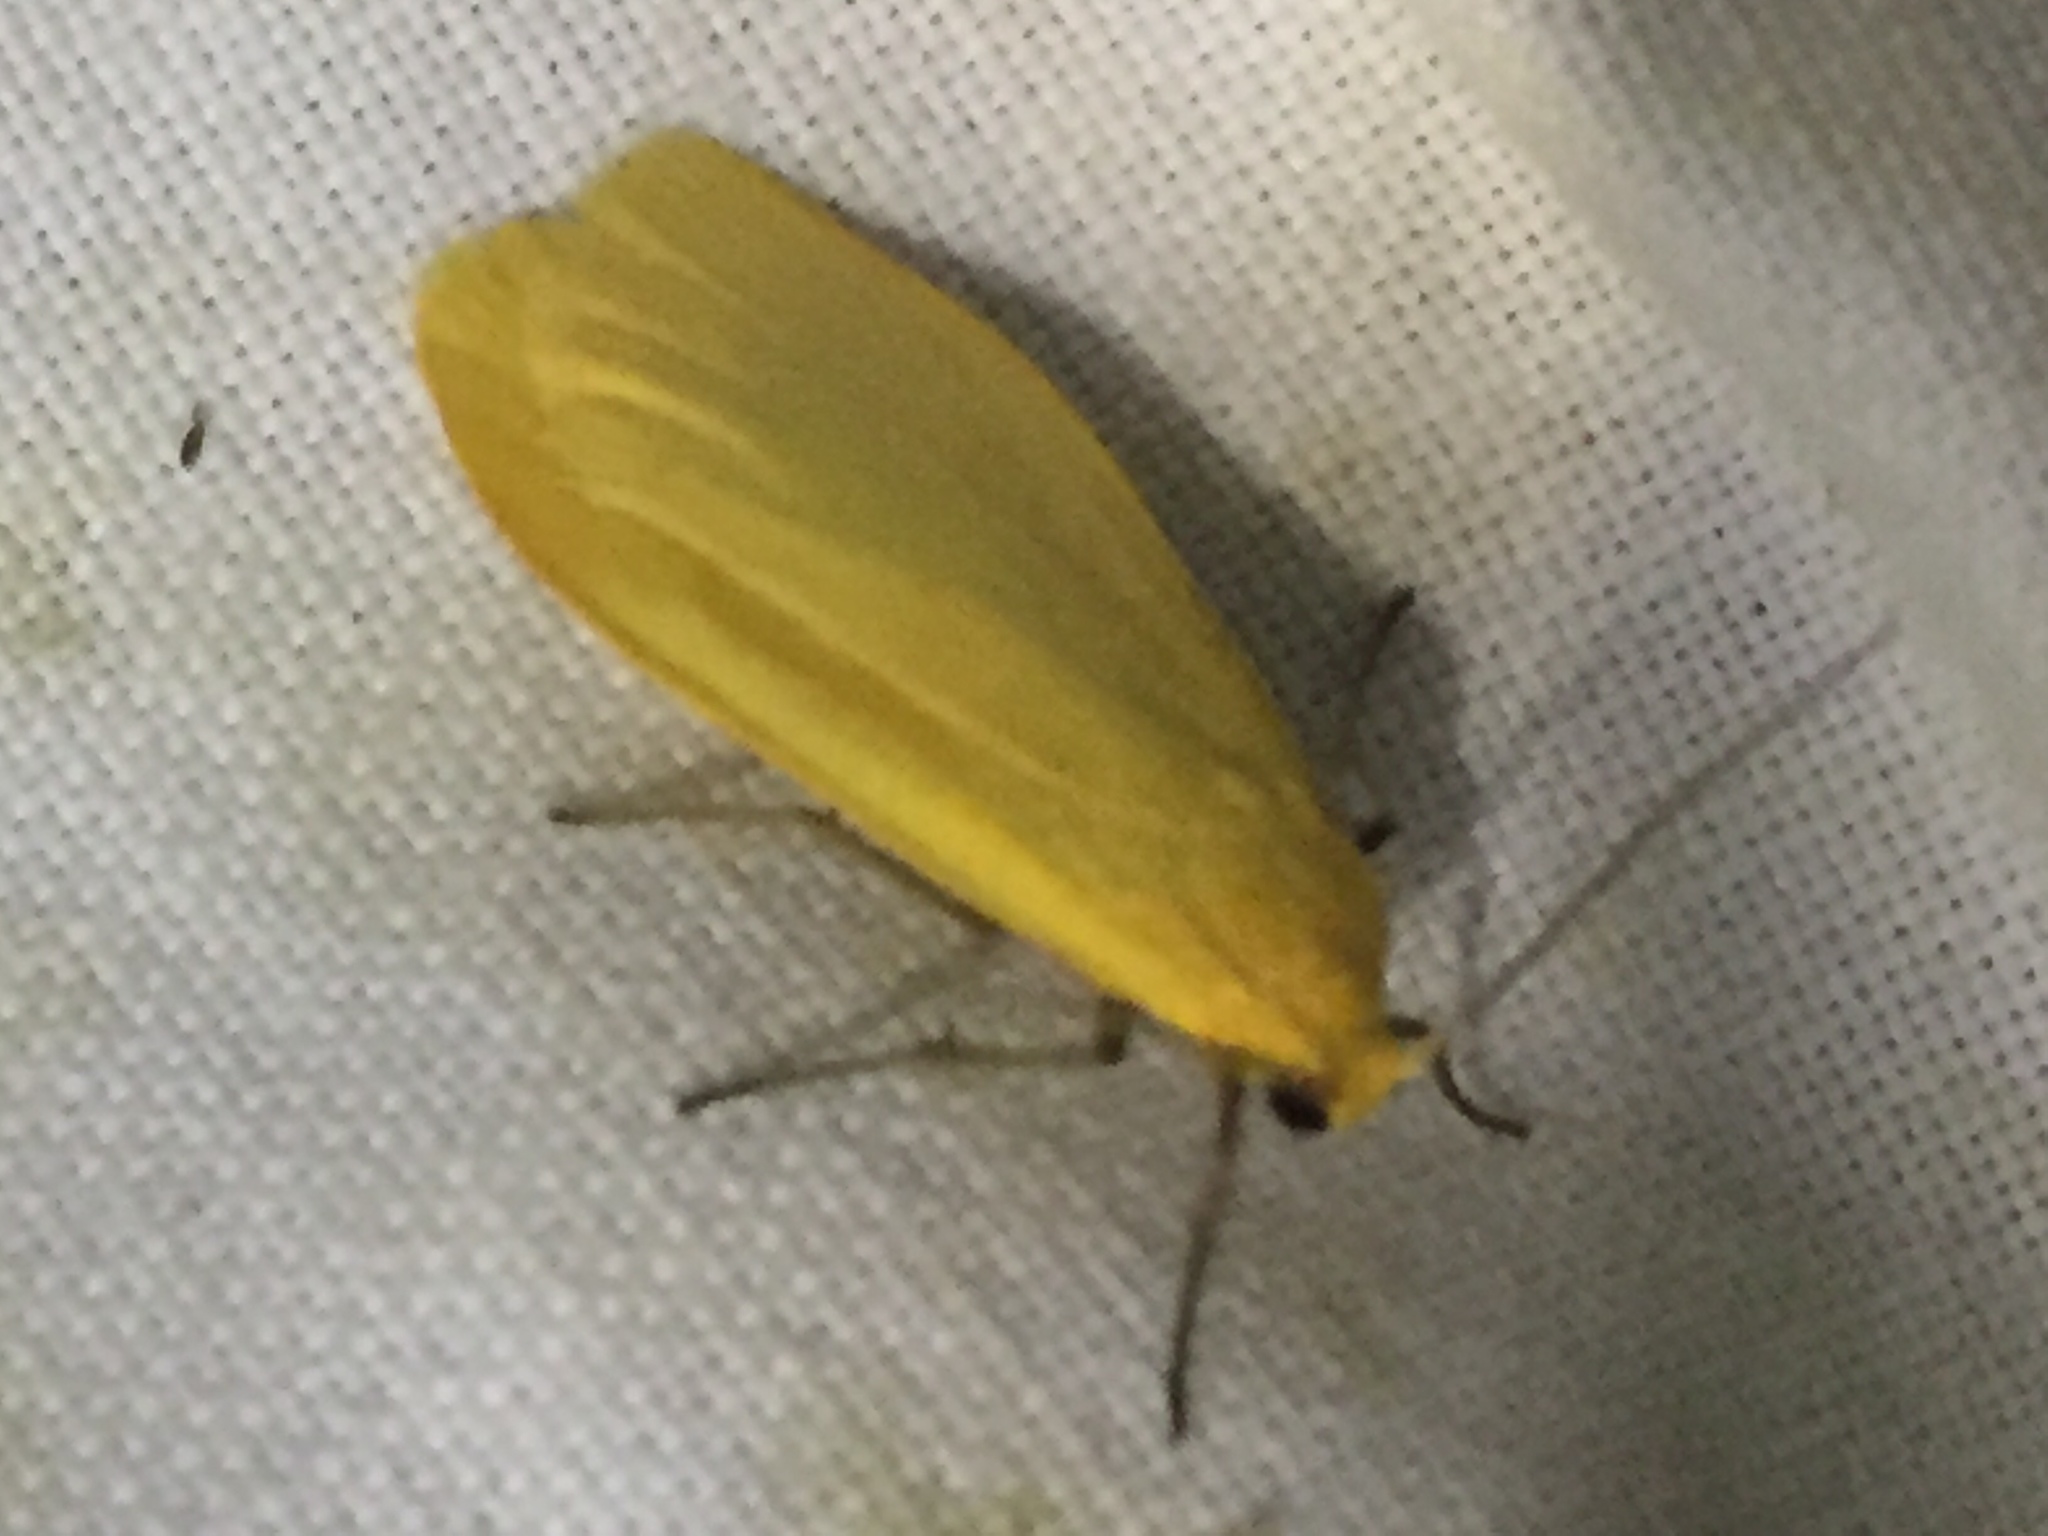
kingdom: Animalia
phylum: Arthropoda
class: Insecta
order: Lepidoptera
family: Erebidae
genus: Wittia
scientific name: Wittia sororcula
